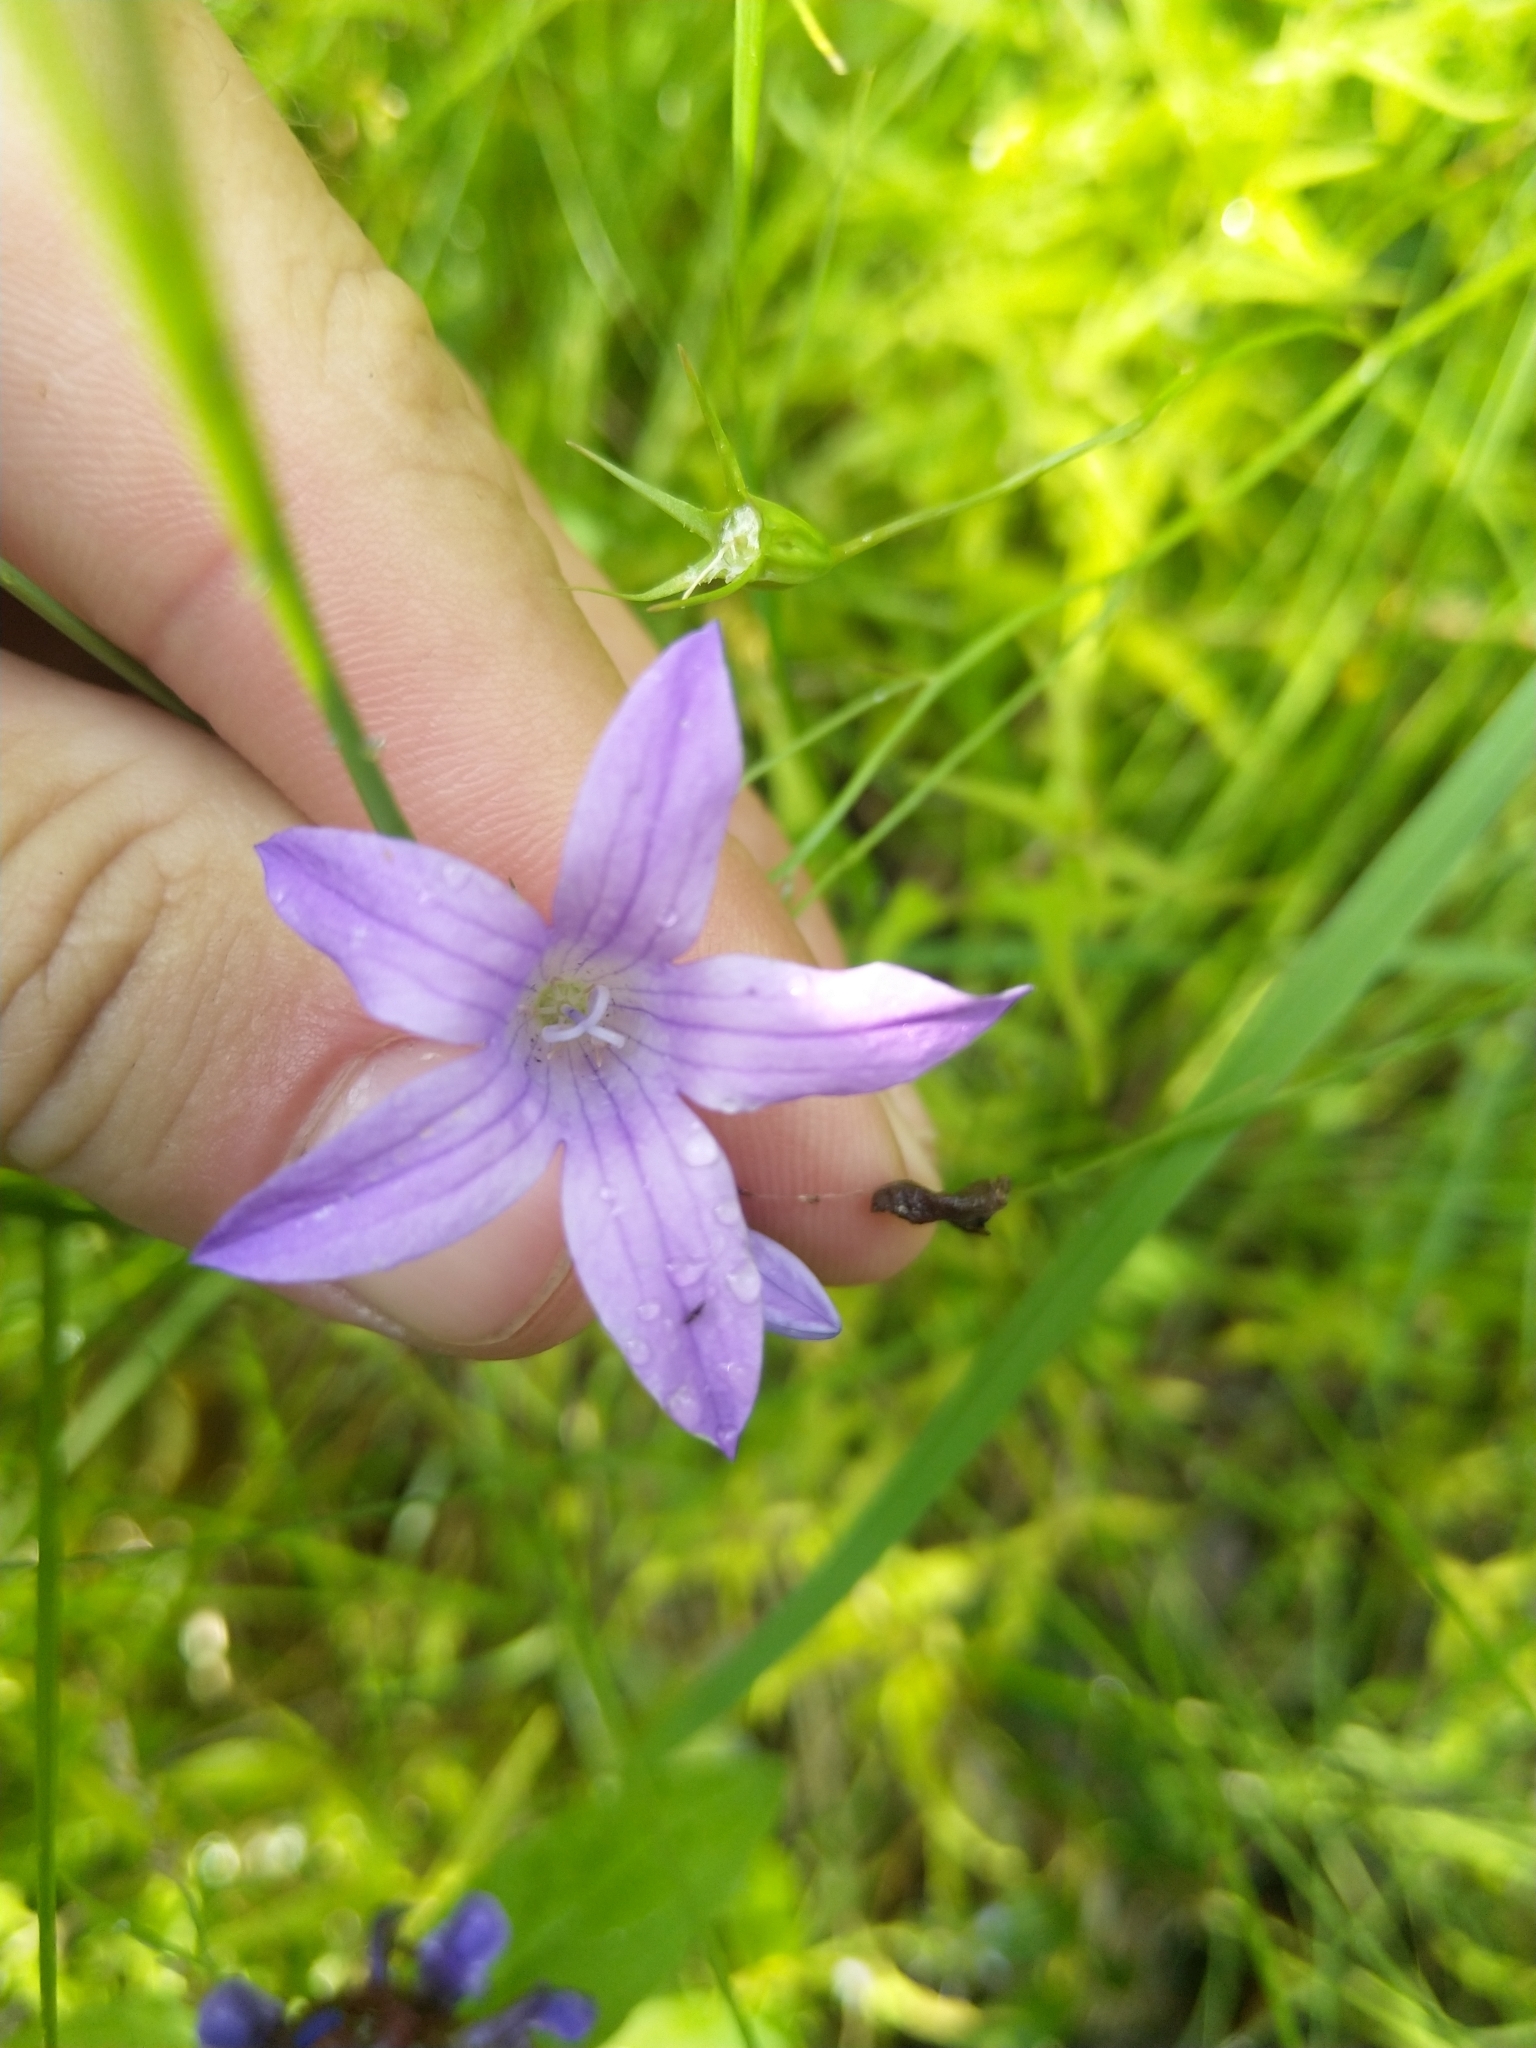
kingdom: Plantae
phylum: Tracheophyta
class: Magnoliopsida
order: Asterales
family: Campanulaceae
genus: Campanula
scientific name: Campanula patula
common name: Spreading bellflower
